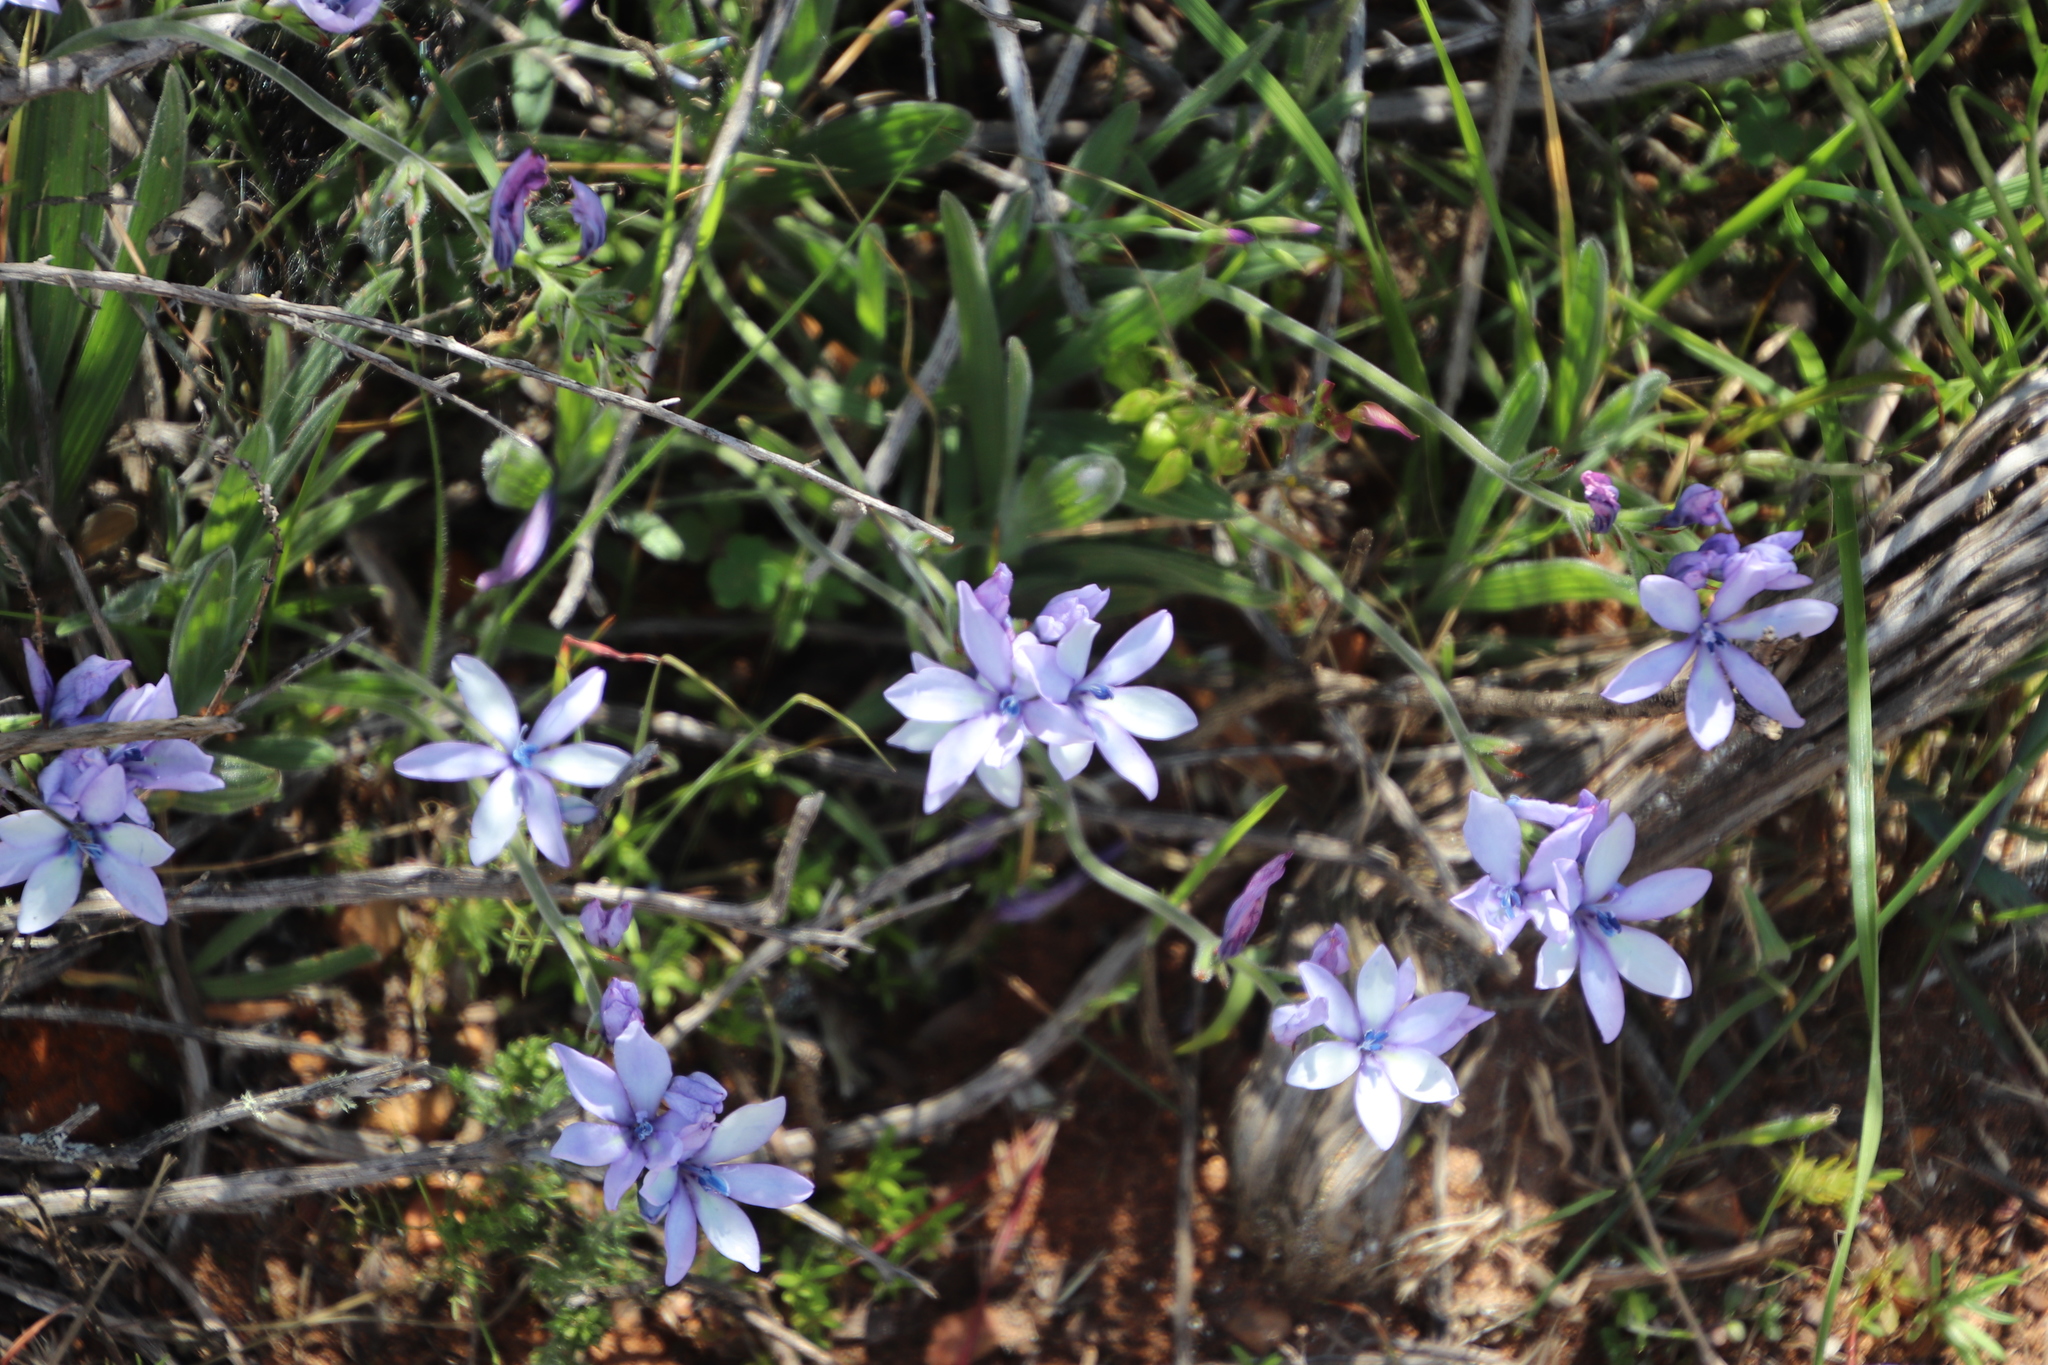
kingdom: Plantae
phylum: Tracheophyta
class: Liliopsida
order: Asparagales
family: Iridaceae
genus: Babiana
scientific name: Babiana fragrans
